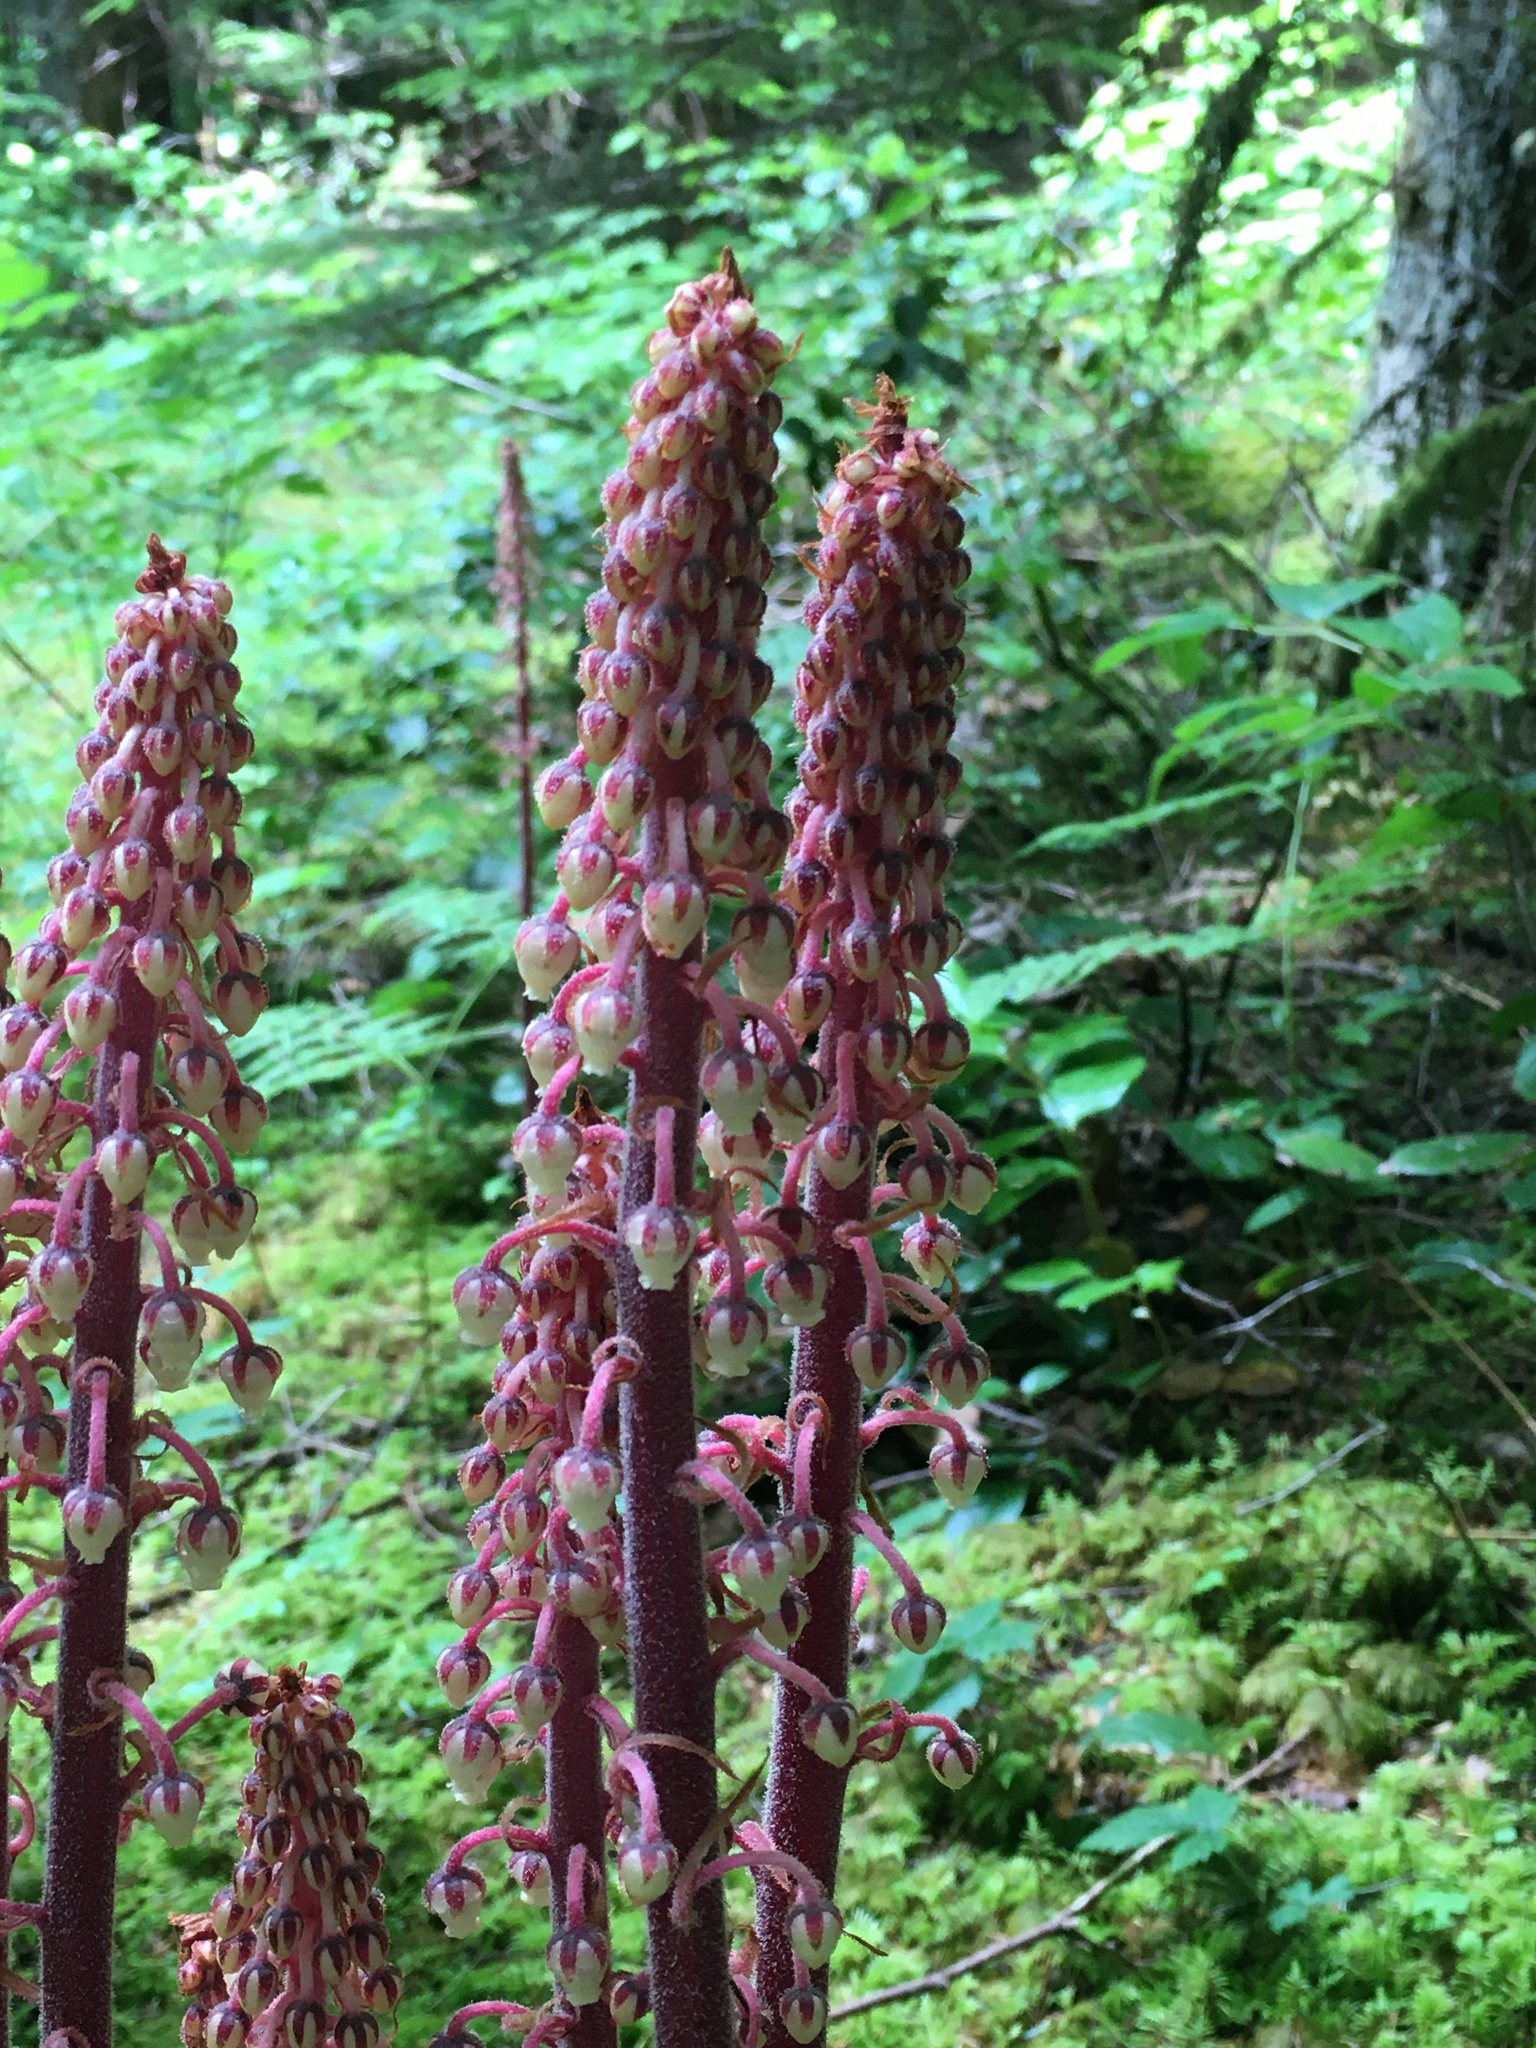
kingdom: Plantae
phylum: Tracheophyta
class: Magnoliopsida
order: Ericales
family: Ericaceae
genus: Pterospora
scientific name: Pterospora andromedea
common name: Giant bird's-nest
